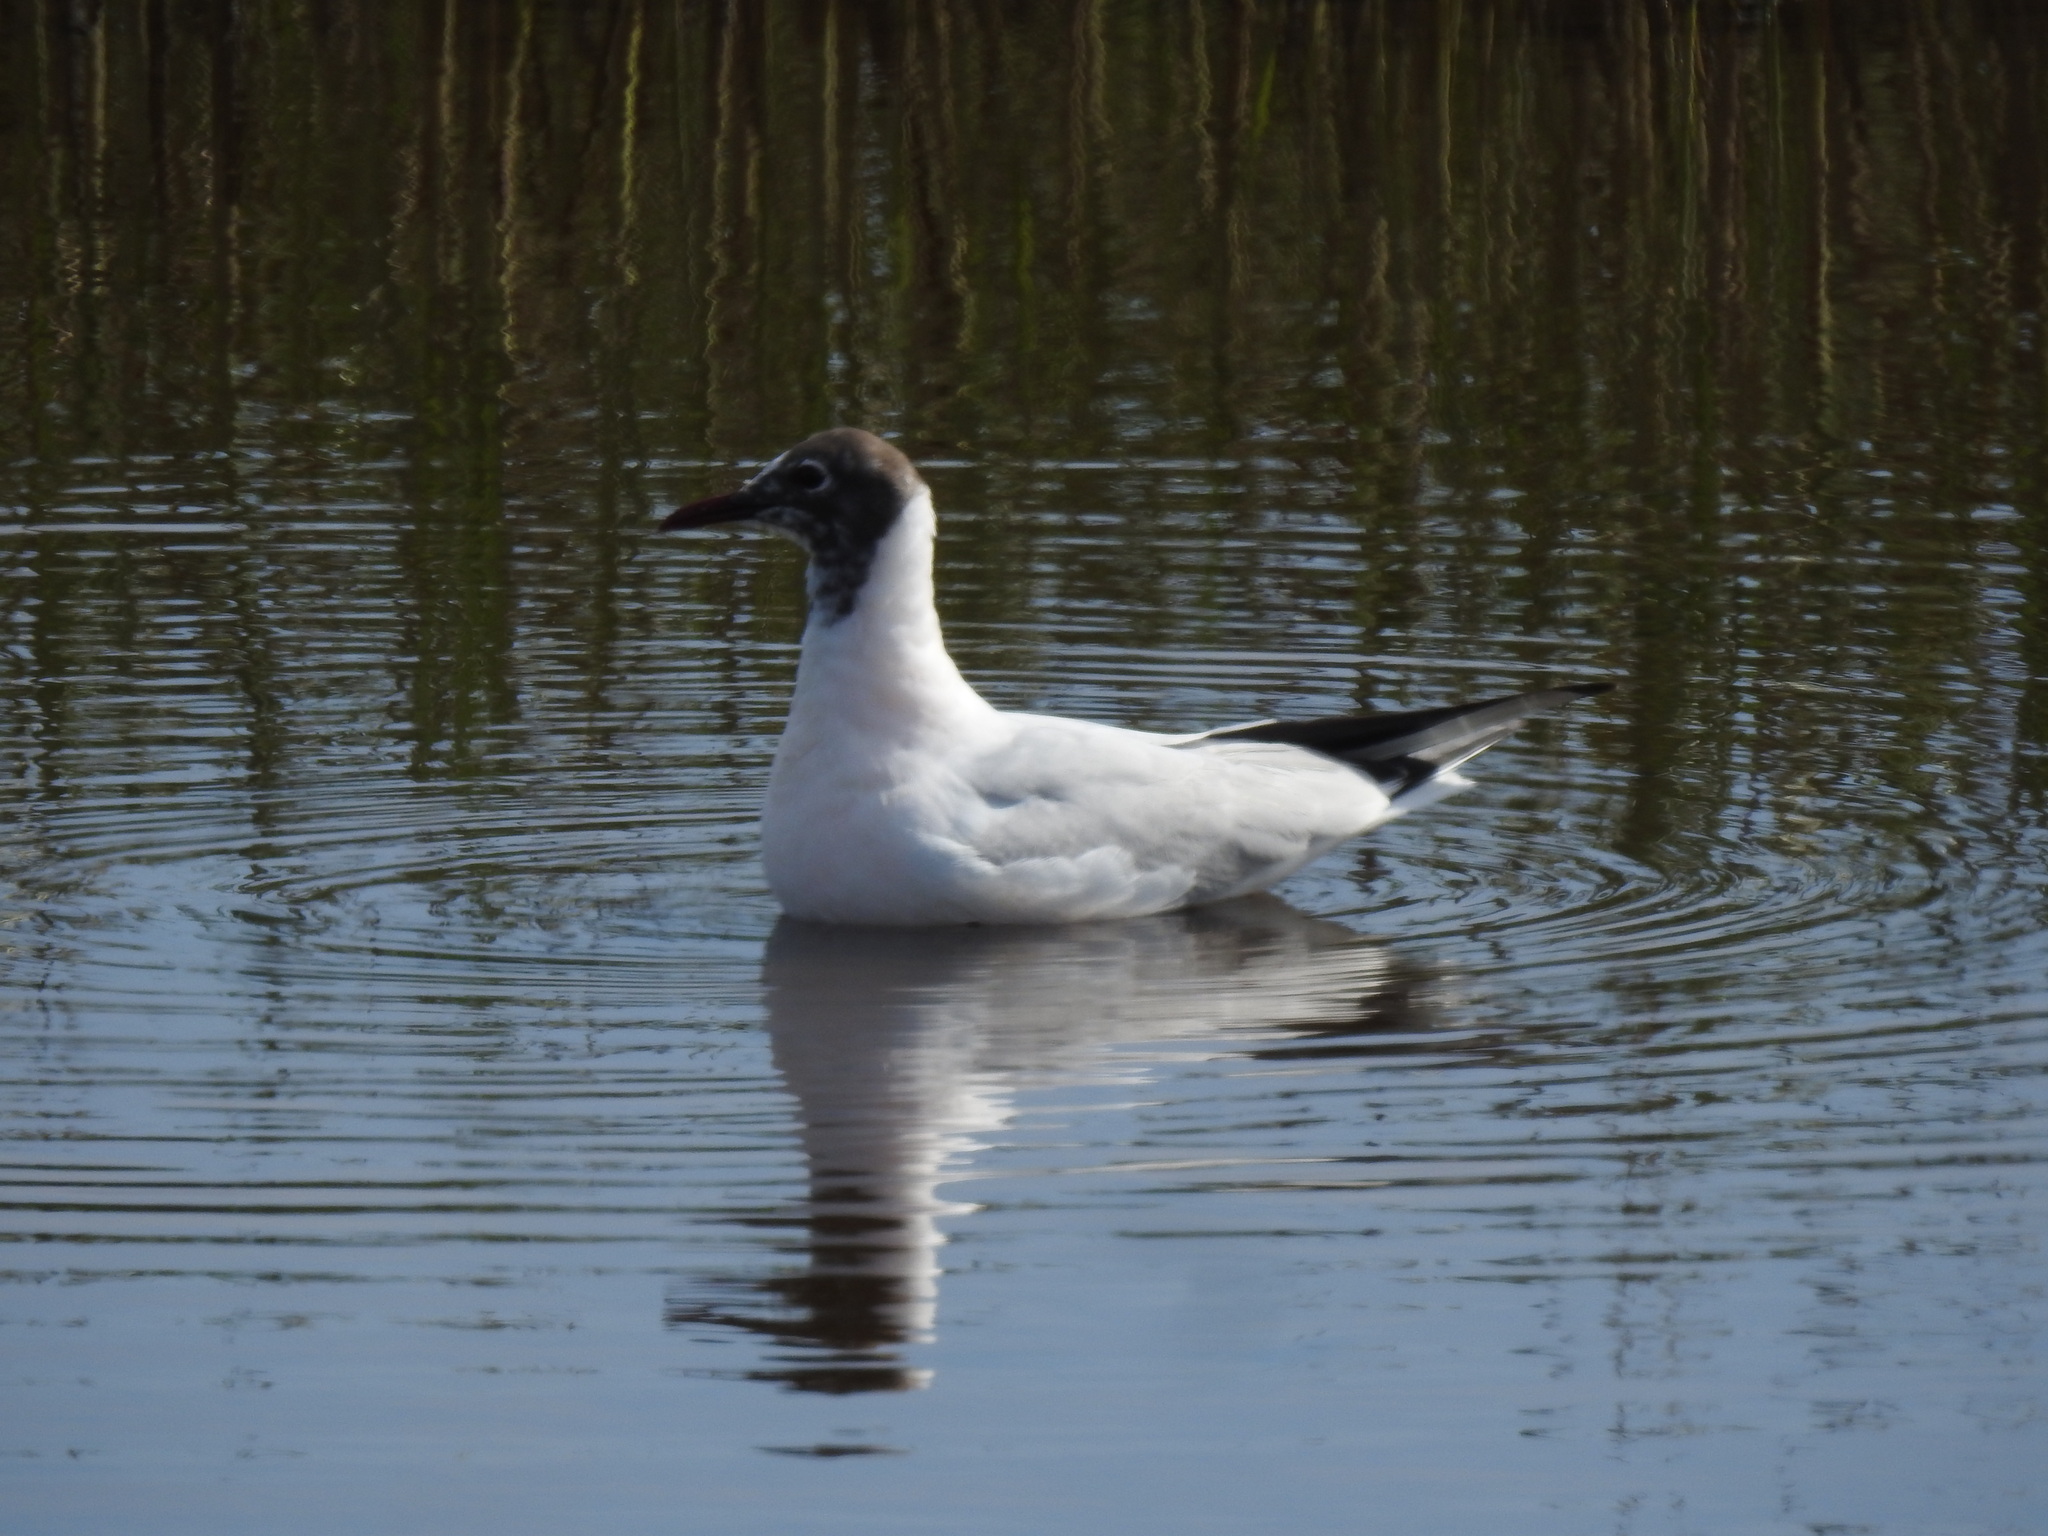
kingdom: Animalia
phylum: Chordata
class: Aves
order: Charadriiformes
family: Laridae
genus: Chroicocephalus
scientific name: Chroicocephalus ridibundus
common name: Black-headed gull
